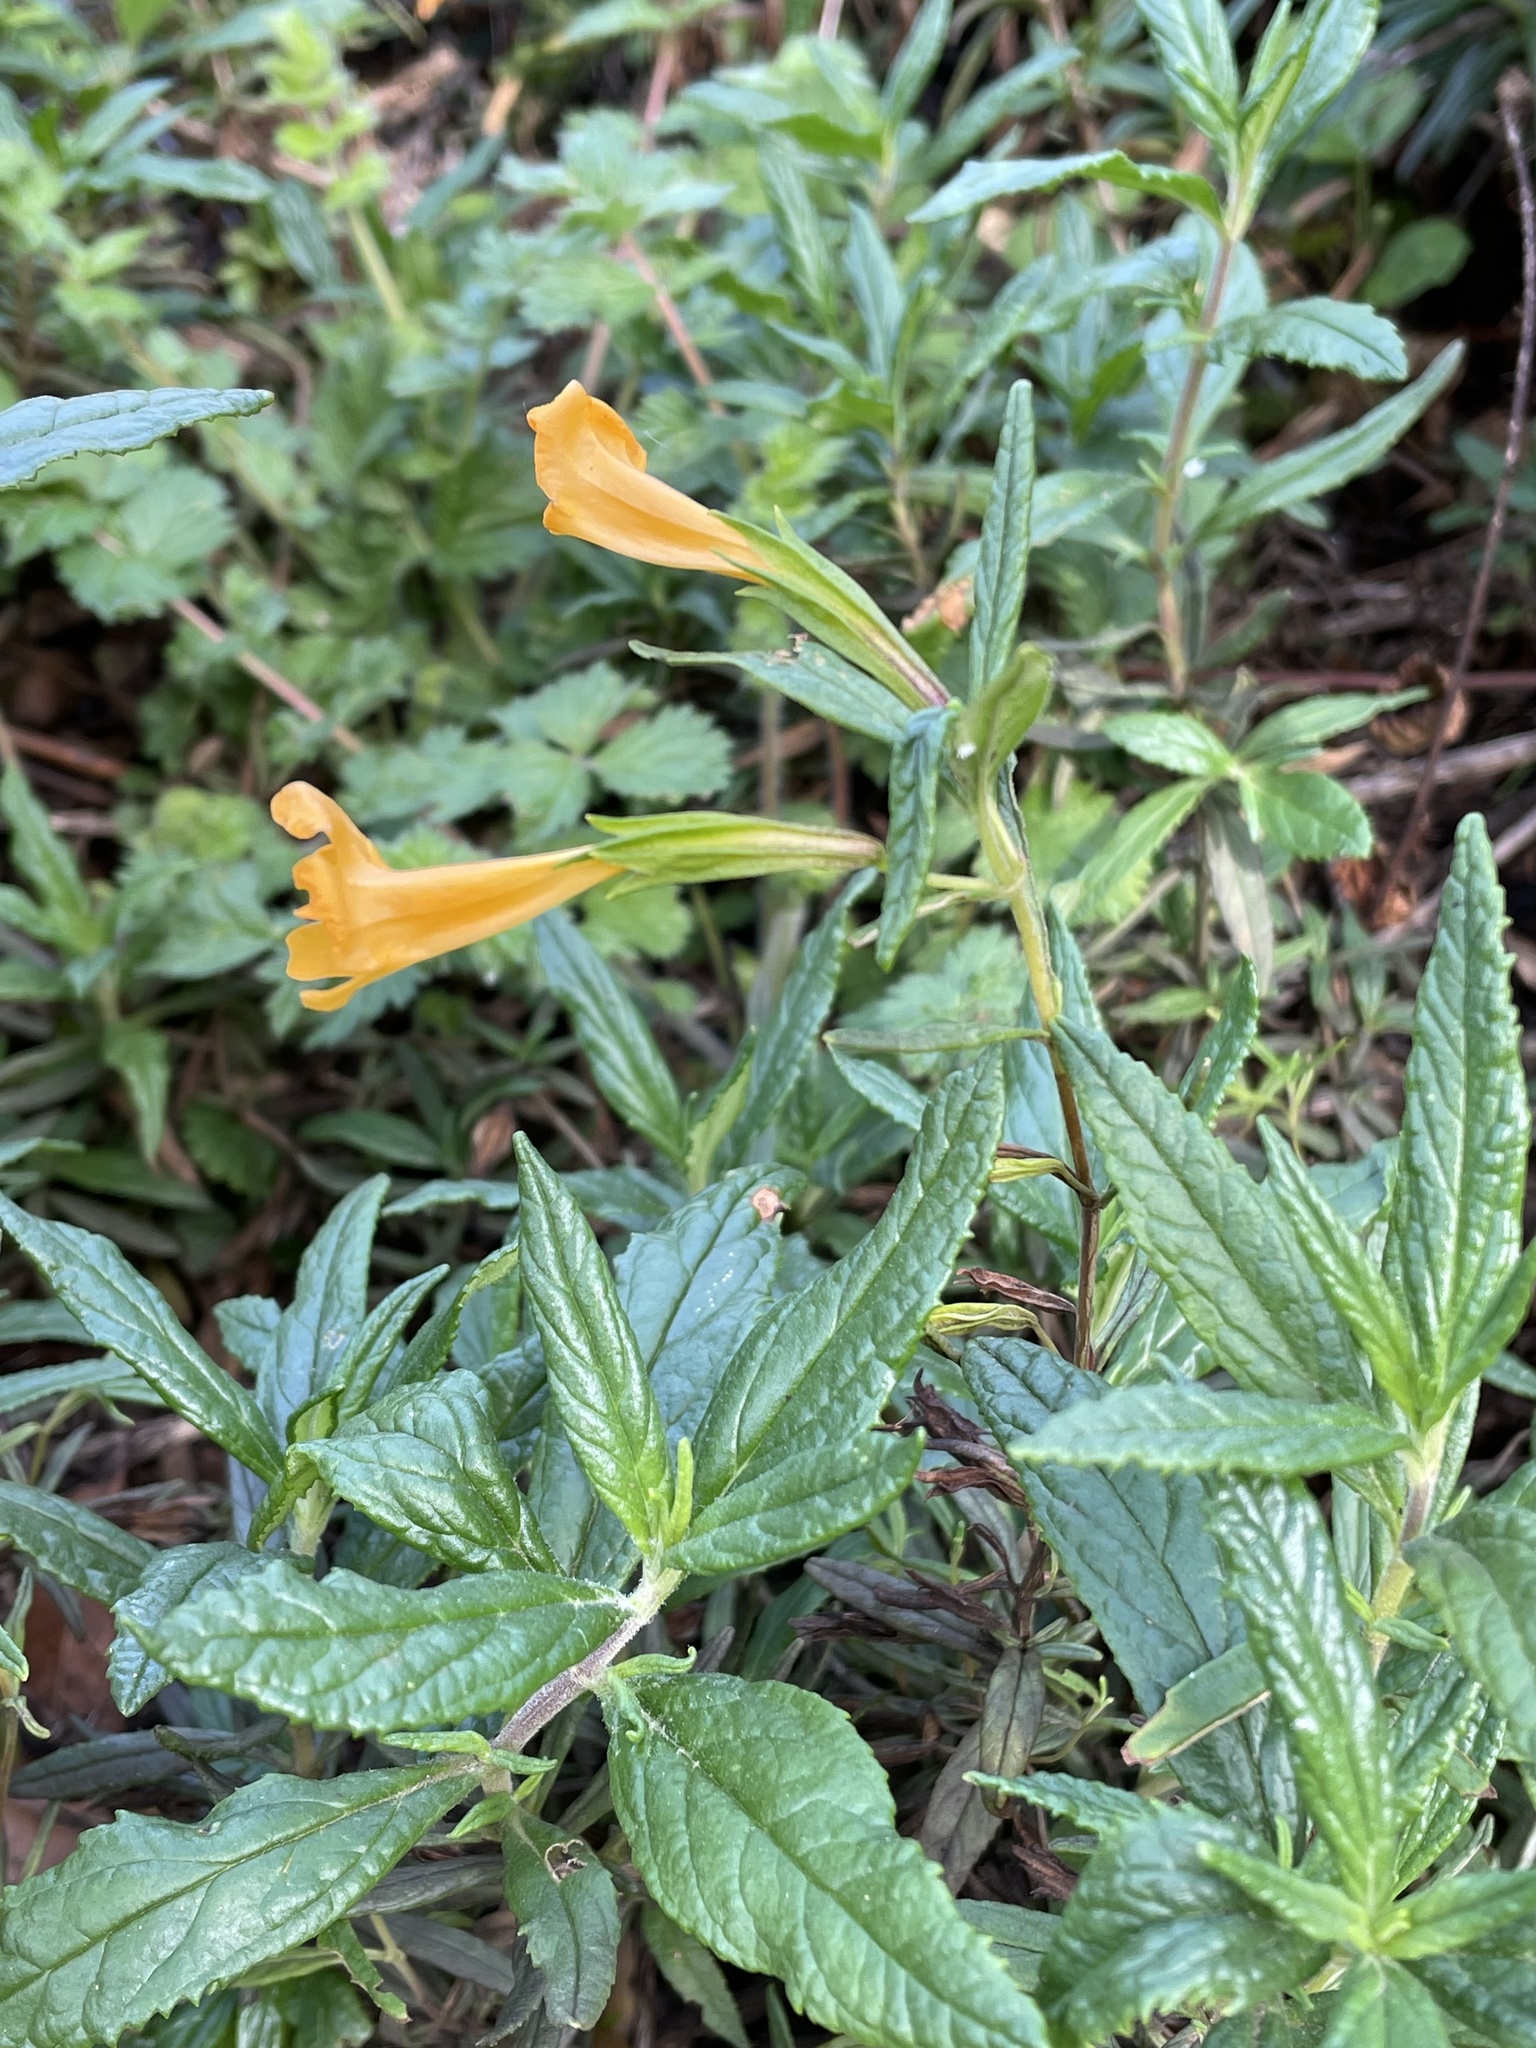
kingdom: Animalia
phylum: Arthropoda
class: Insecta
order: Lepidoptera
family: Nymphalidae
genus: Occidryas
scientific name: Occidryas chalcedona
